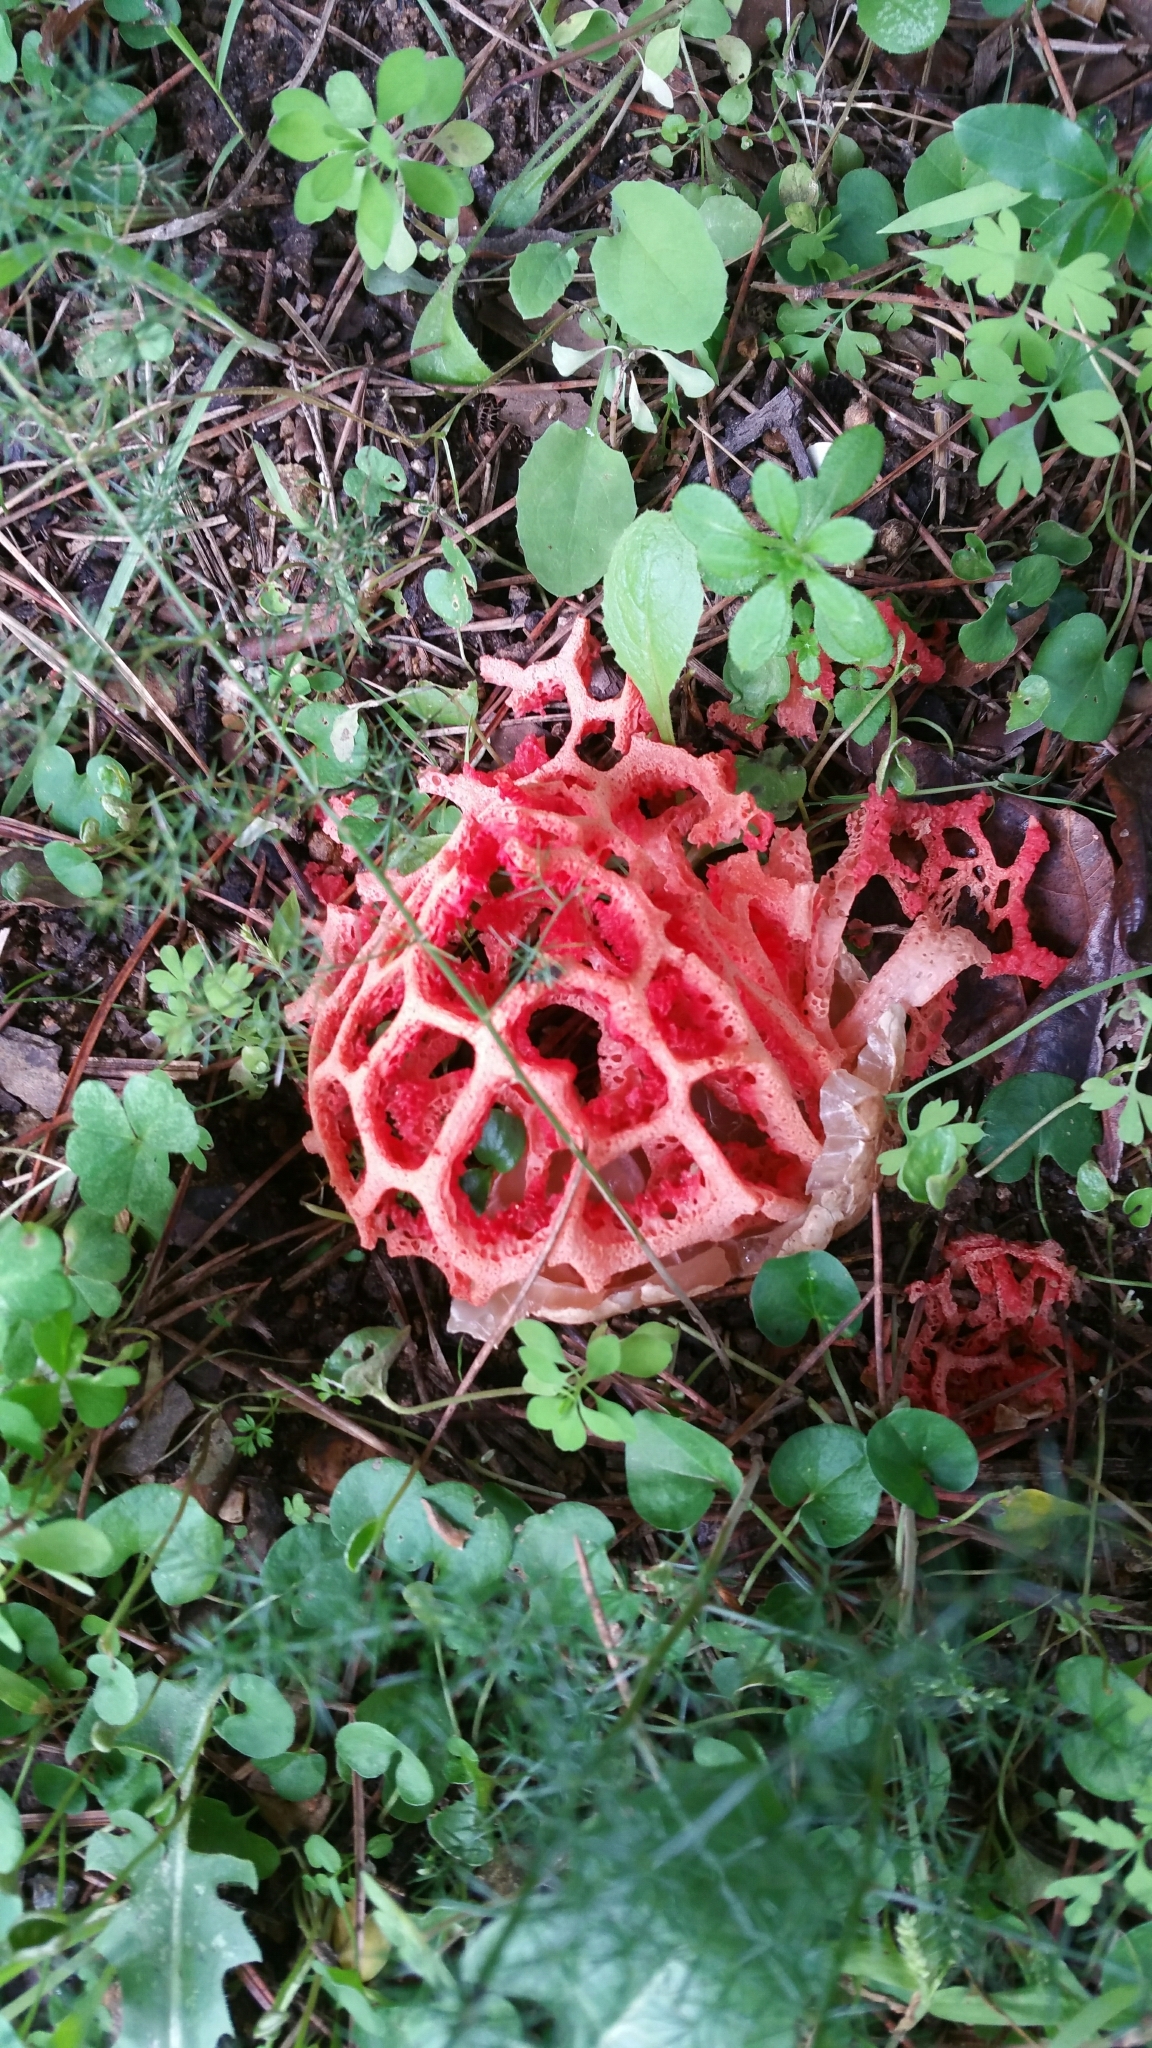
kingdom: Fungi
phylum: Basidiomycota
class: Agaricomycetes
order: Phallales
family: Phallaceae
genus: Clathrus
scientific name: Clathrus ruber
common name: Red cage
